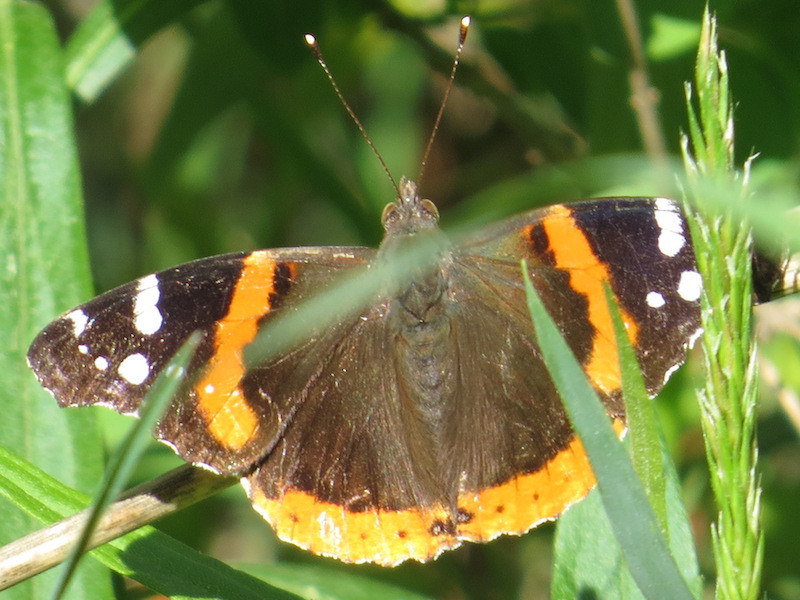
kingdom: Animalia
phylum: Arthropoda
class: Insecta
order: Lepidoptera
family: Nymphalidae
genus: Vanessa
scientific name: Vanessa atalanta
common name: Red admiral
